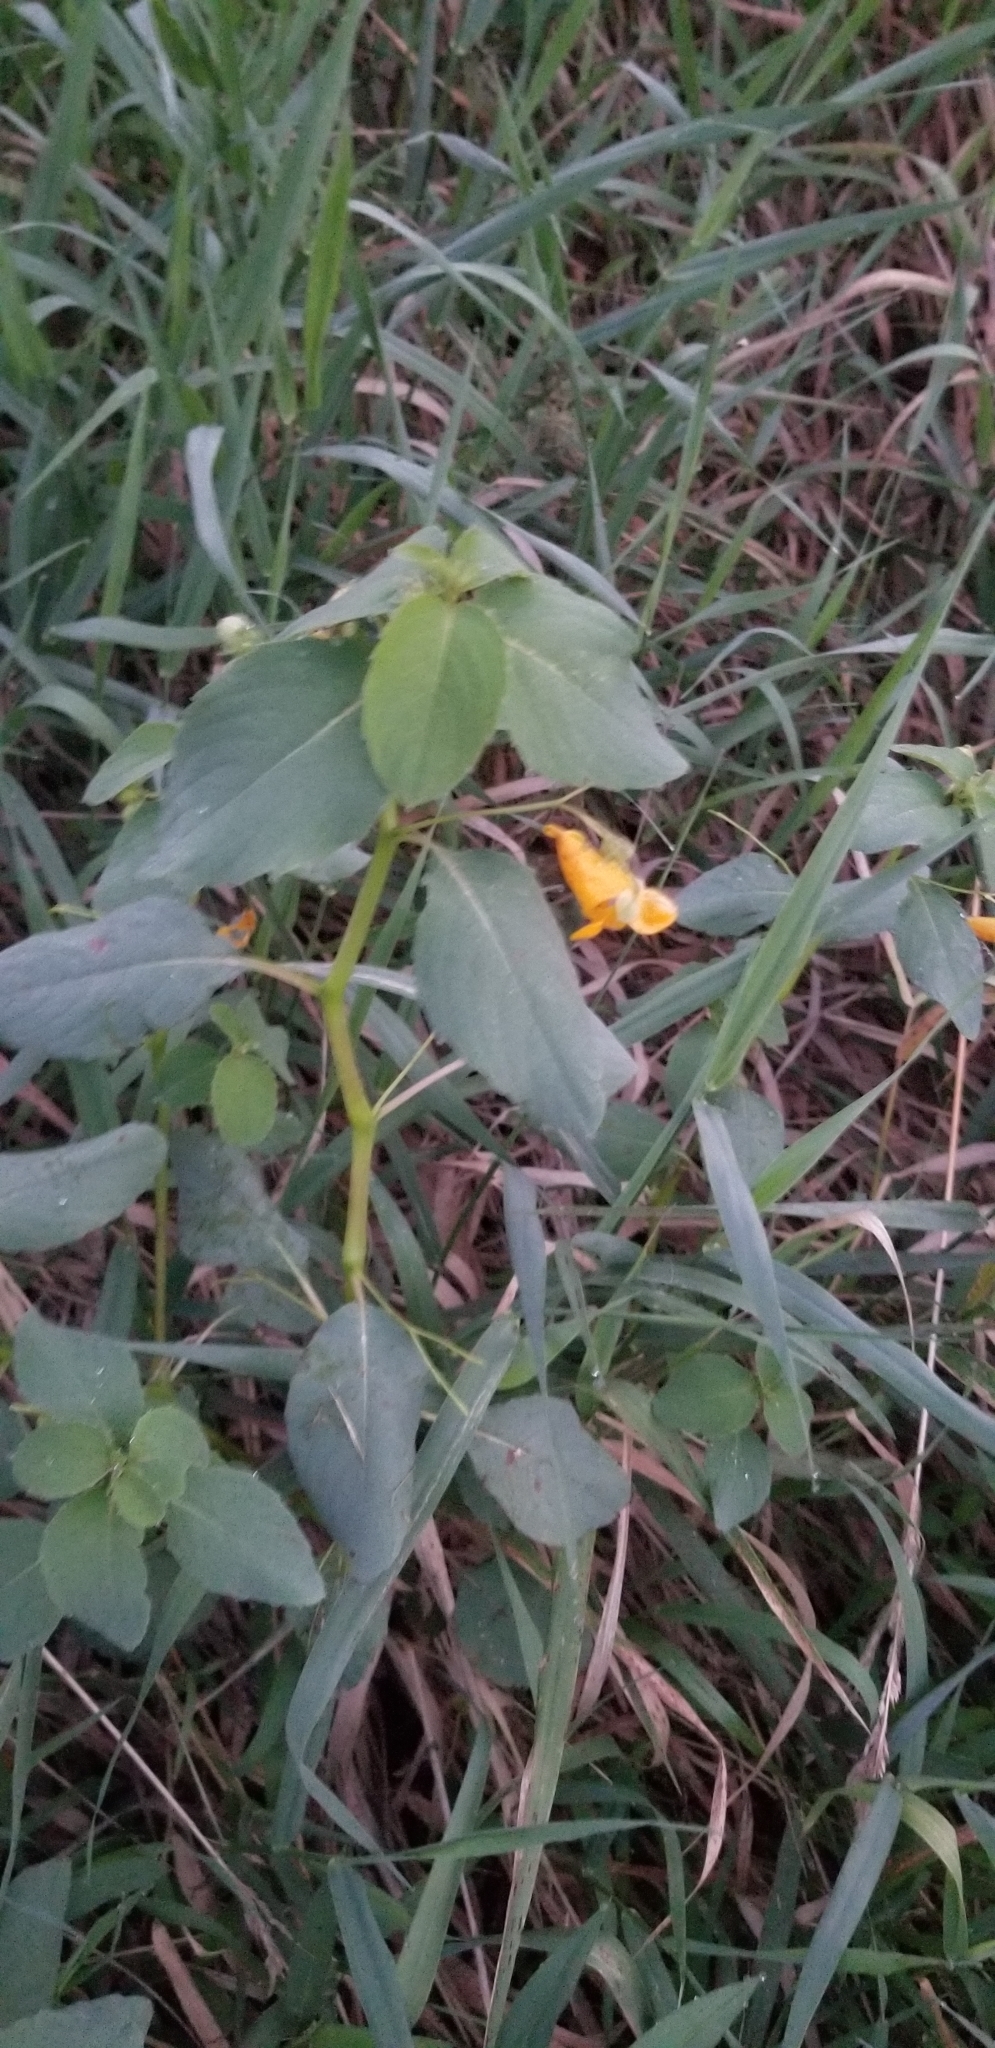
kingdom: Plantae
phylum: Tracheophyta
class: Magnoliopsida
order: Ericales
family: Balsaminaceae
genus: Impatiens
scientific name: Impatiens capensis
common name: Orange balsam
